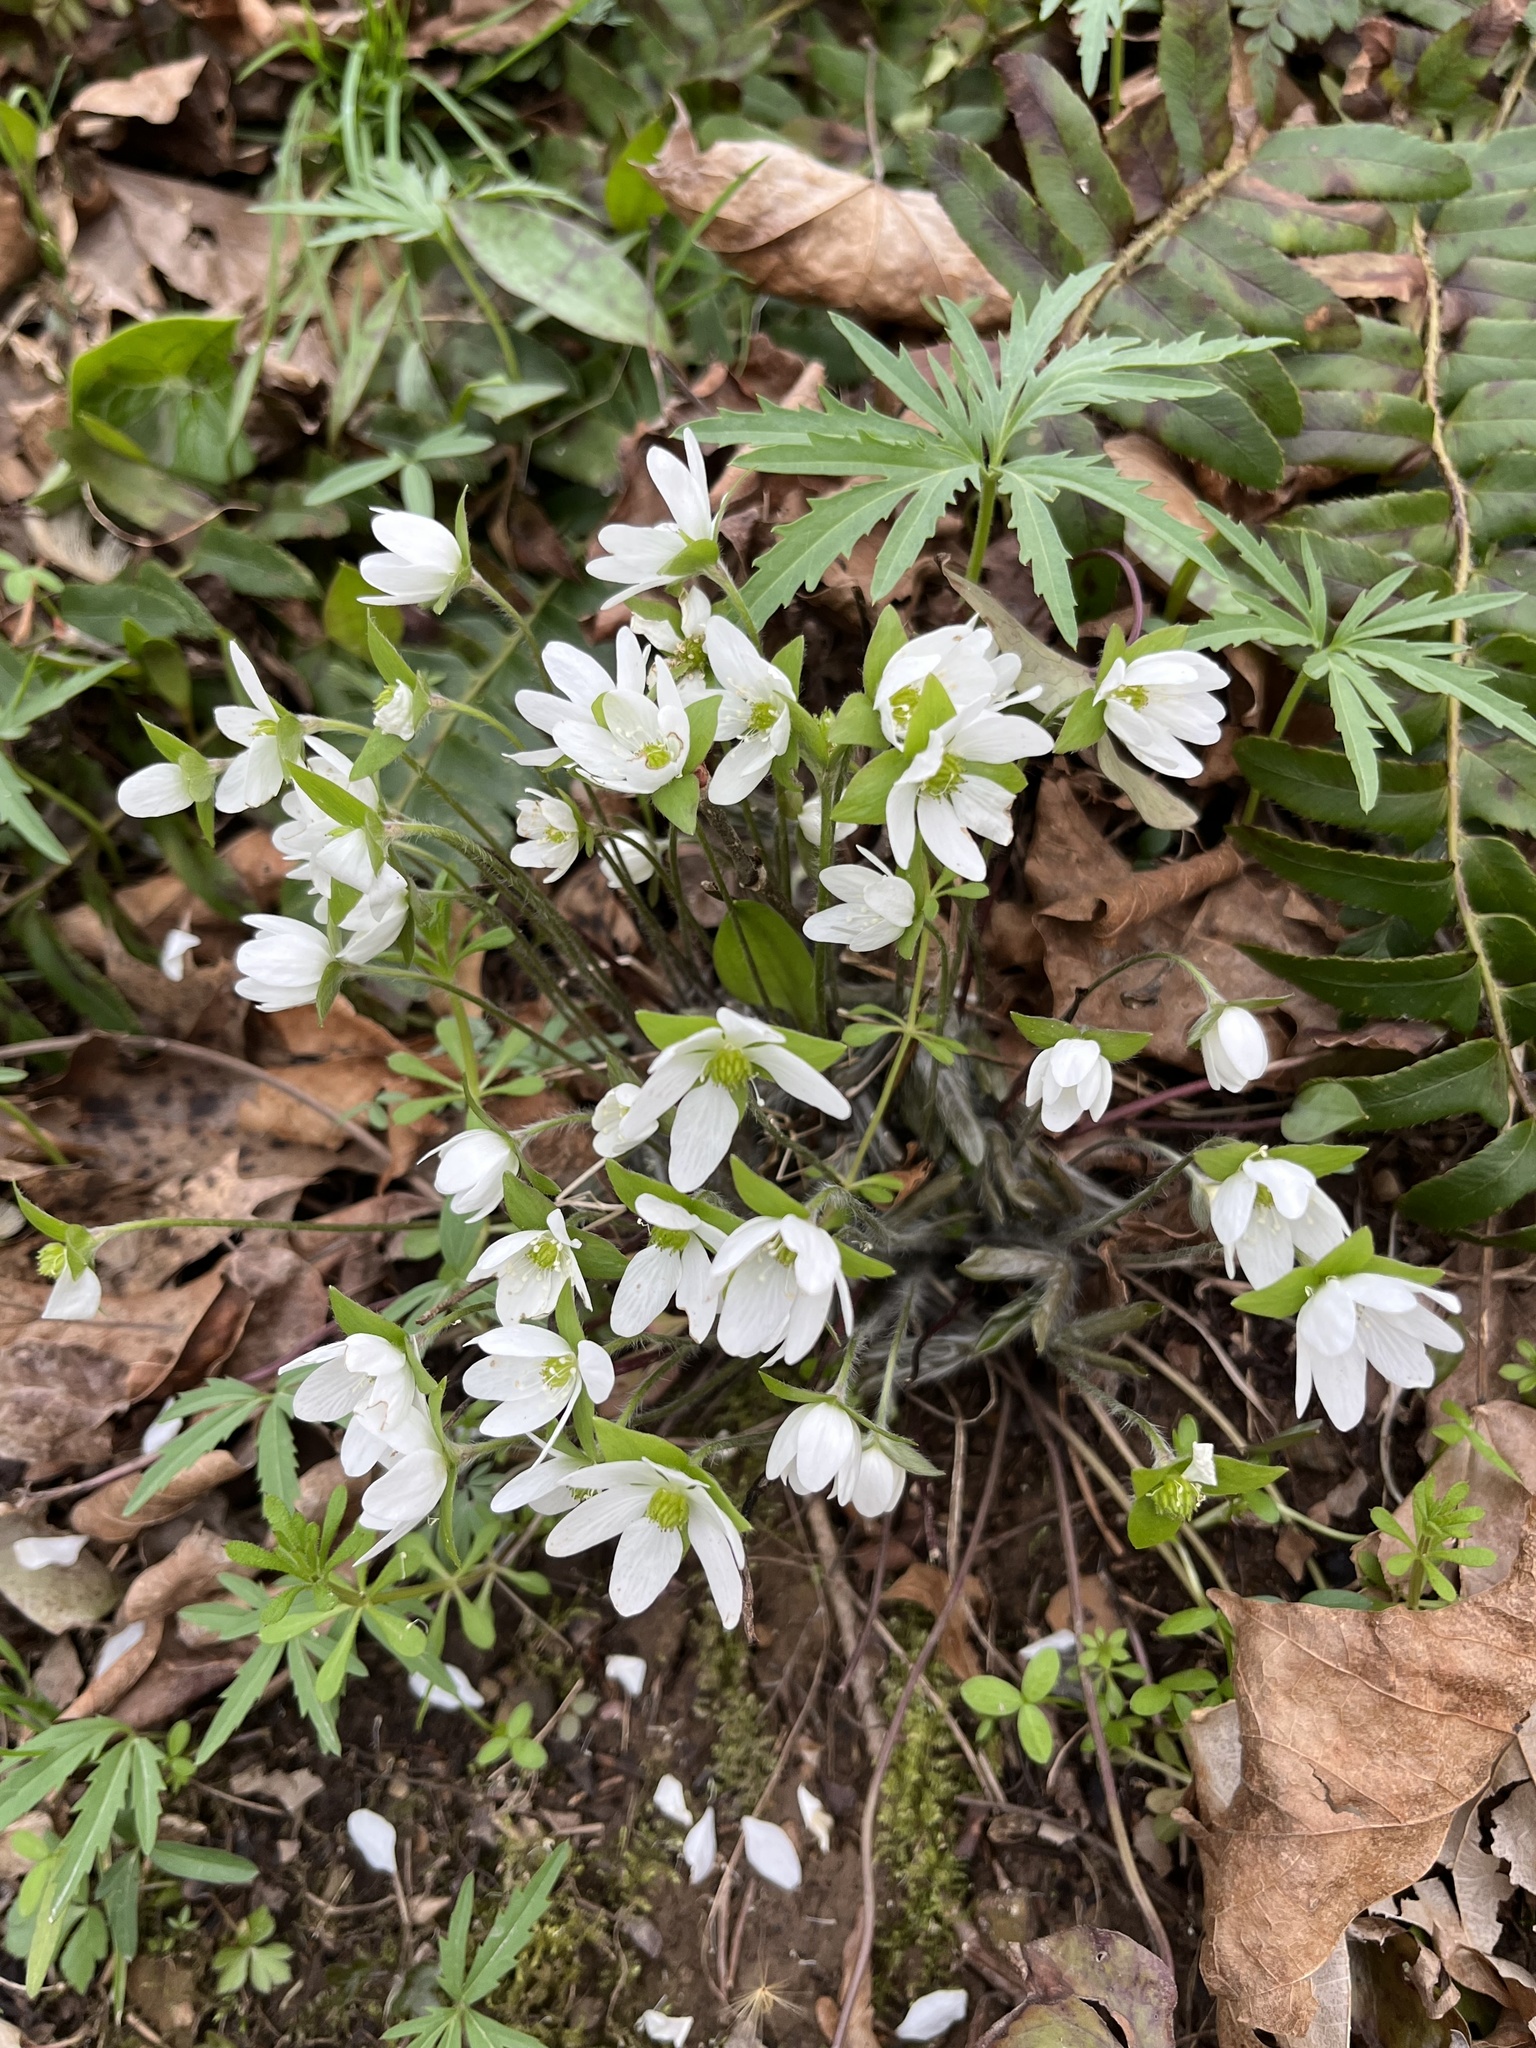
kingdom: Plantae
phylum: Tracheophyta
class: Magnoliopsida
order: Ranunculales
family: Ranunculaceae
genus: Hepatica
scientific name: Hepatica acutiloba
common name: Sharp-lobed hepatica
